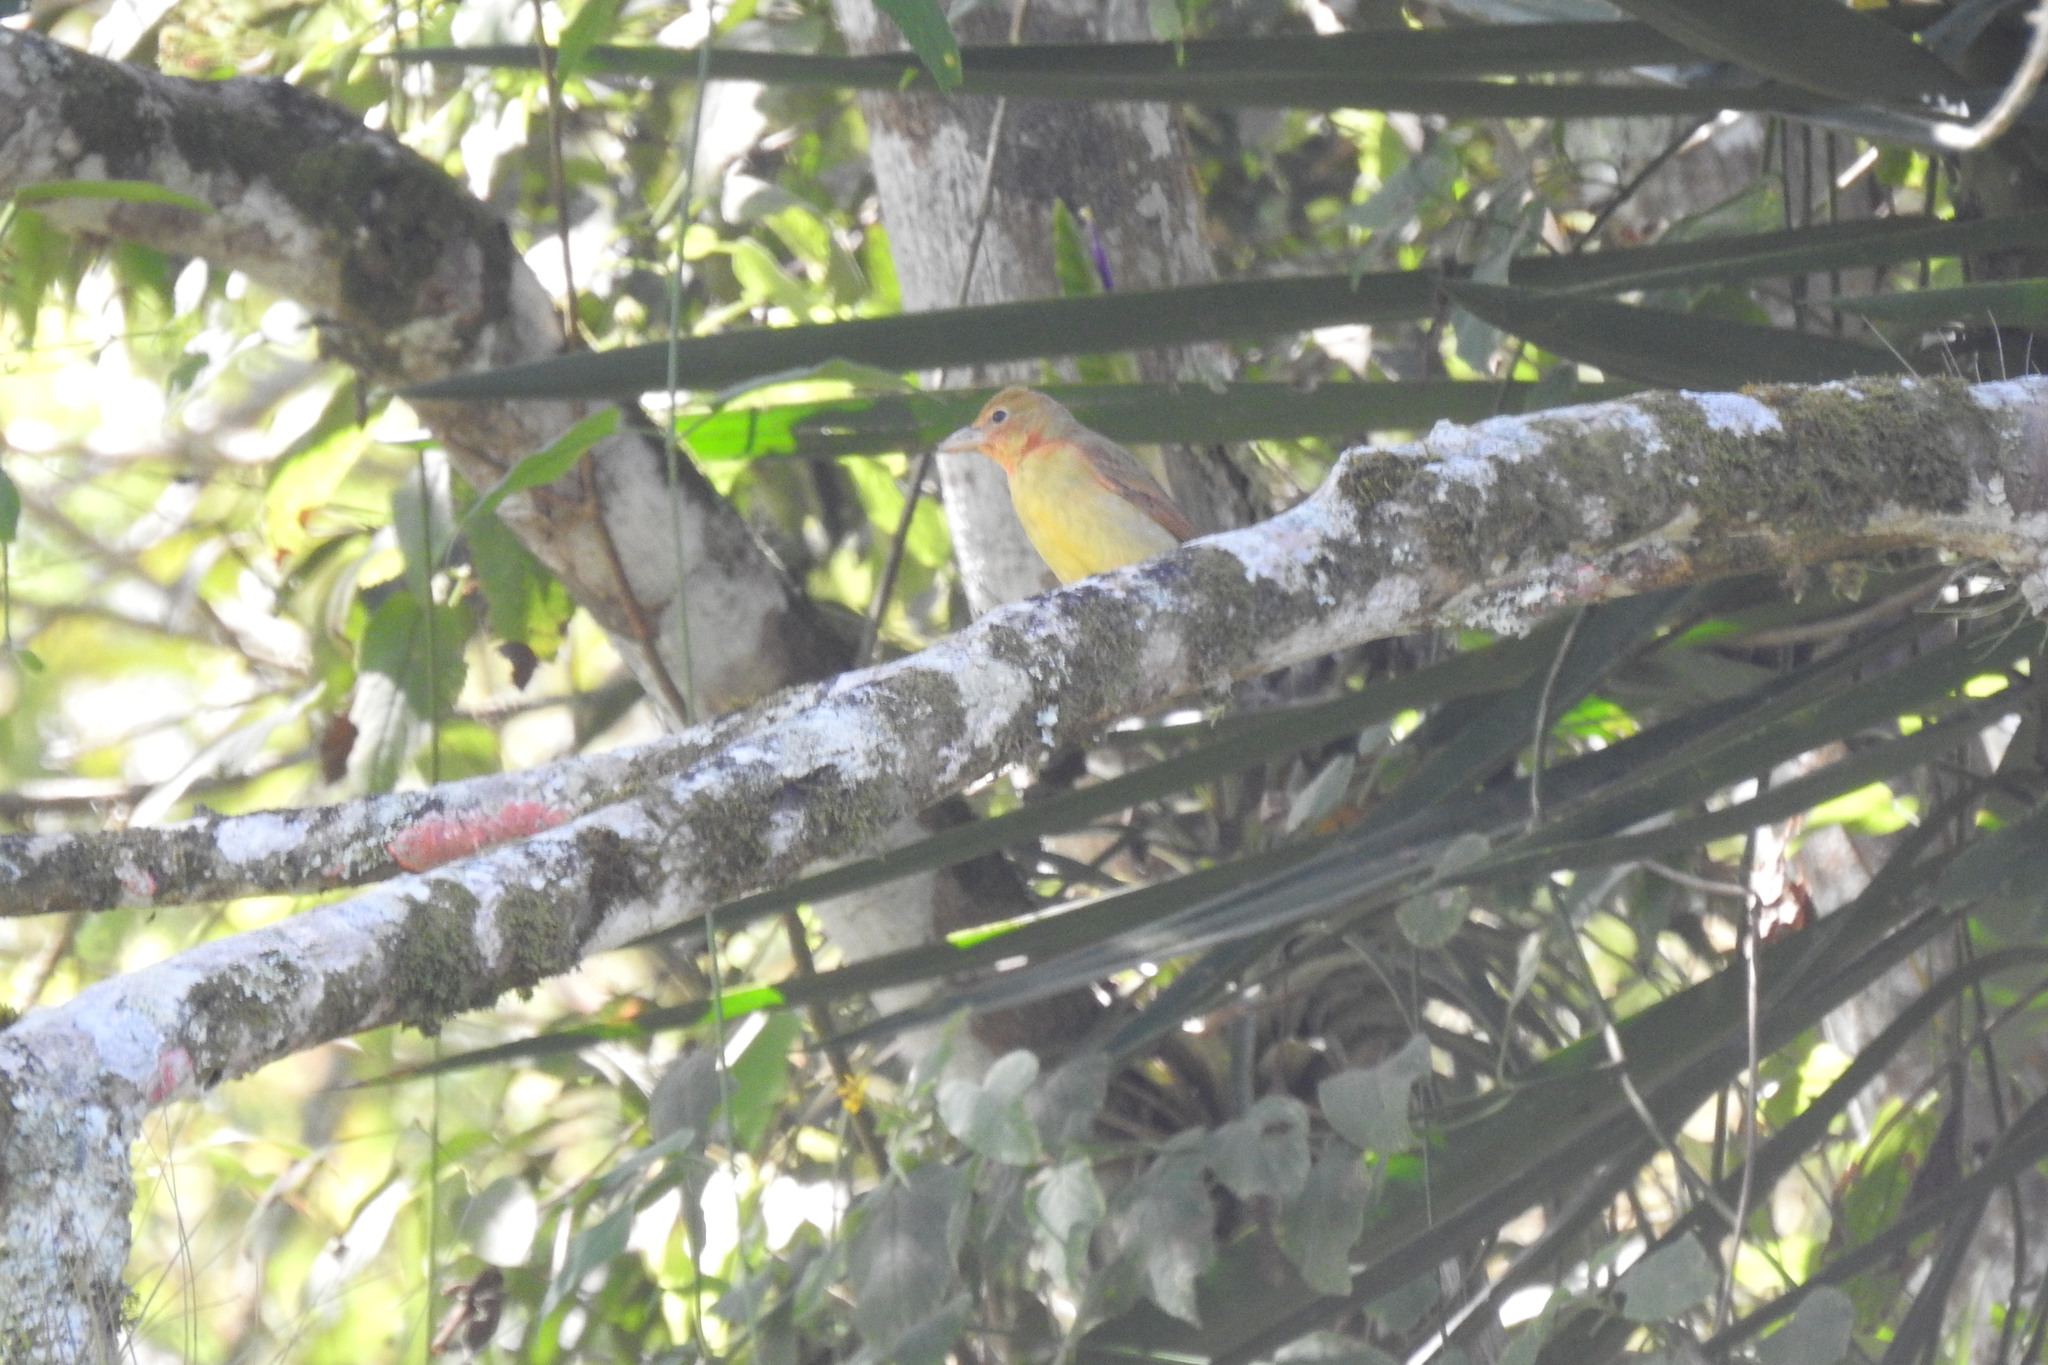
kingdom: Animalia
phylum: Chordata
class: Aves
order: Passeriformes
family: Cardinalidae
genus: Piranga
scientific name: Piranga rubra
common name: Summer tanager
